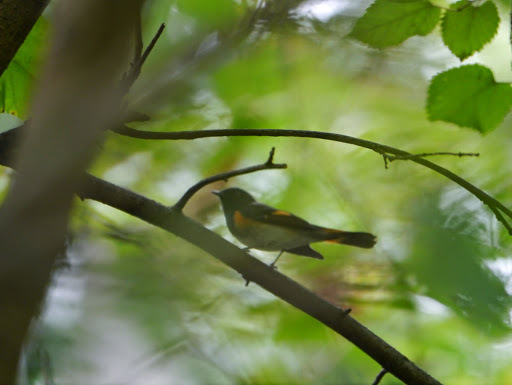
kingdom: Animalia
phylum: Chordata
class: Aves
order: Passeriformes
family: Parulidae
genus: Setophaga
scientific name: Setophaga ruticilla
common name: American redstart
